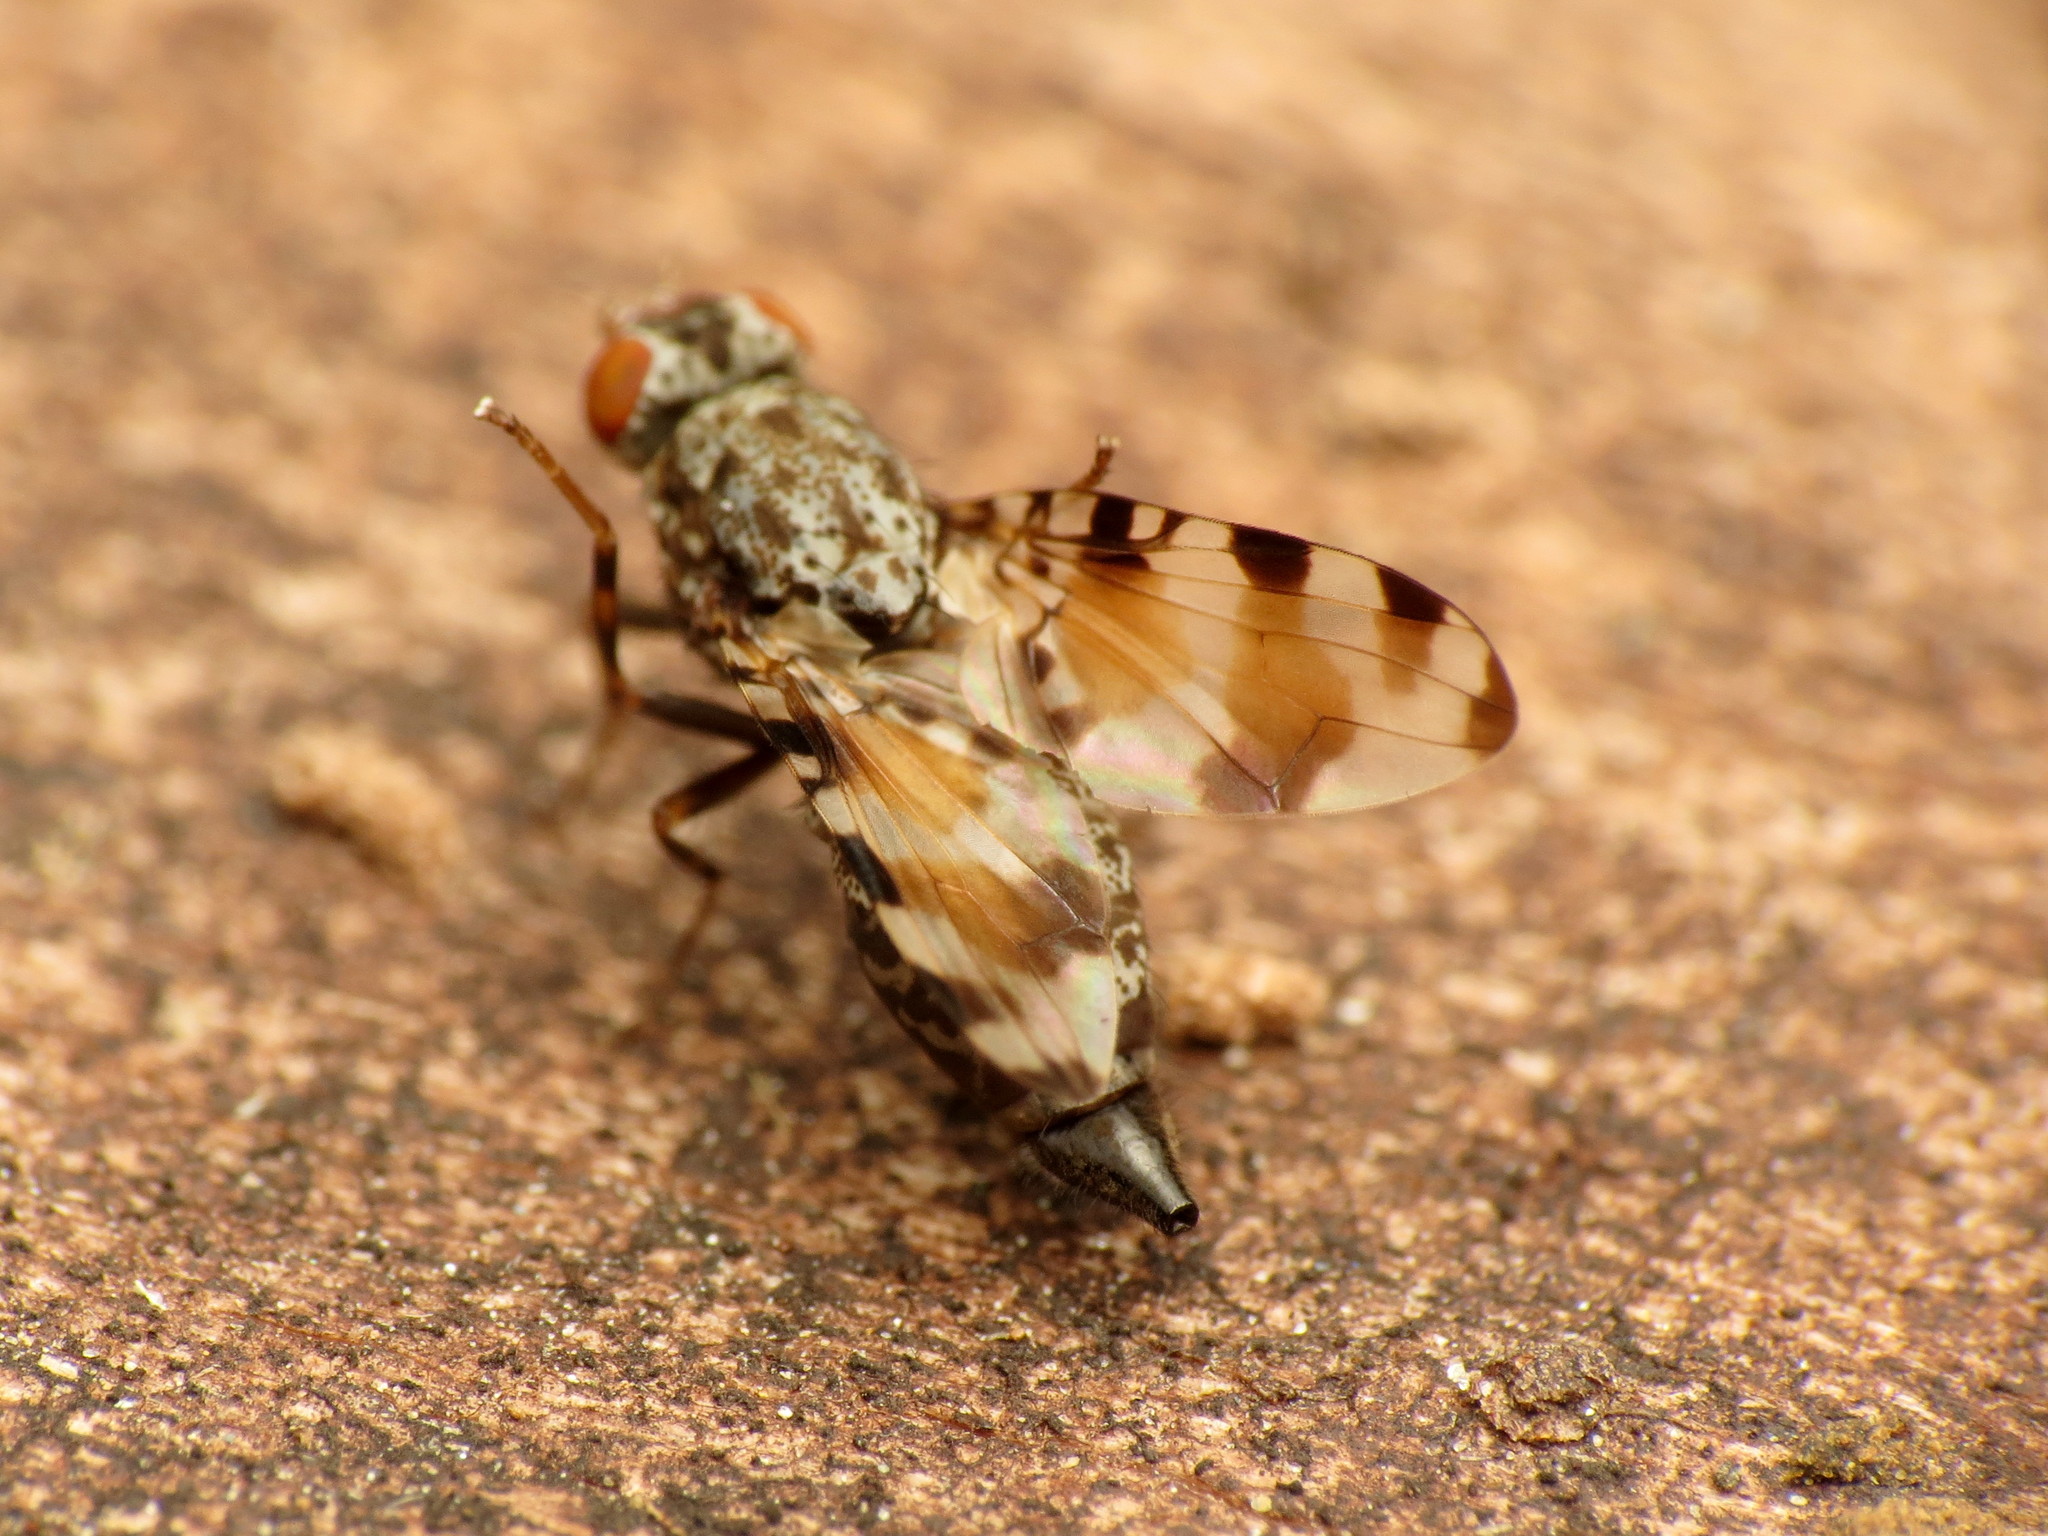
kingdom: Animalia
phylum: Arthropoda
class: Insecta
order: Diptera
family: Ulidiidae
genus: Pseudotephritis
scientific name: Pseudotephritis vau
